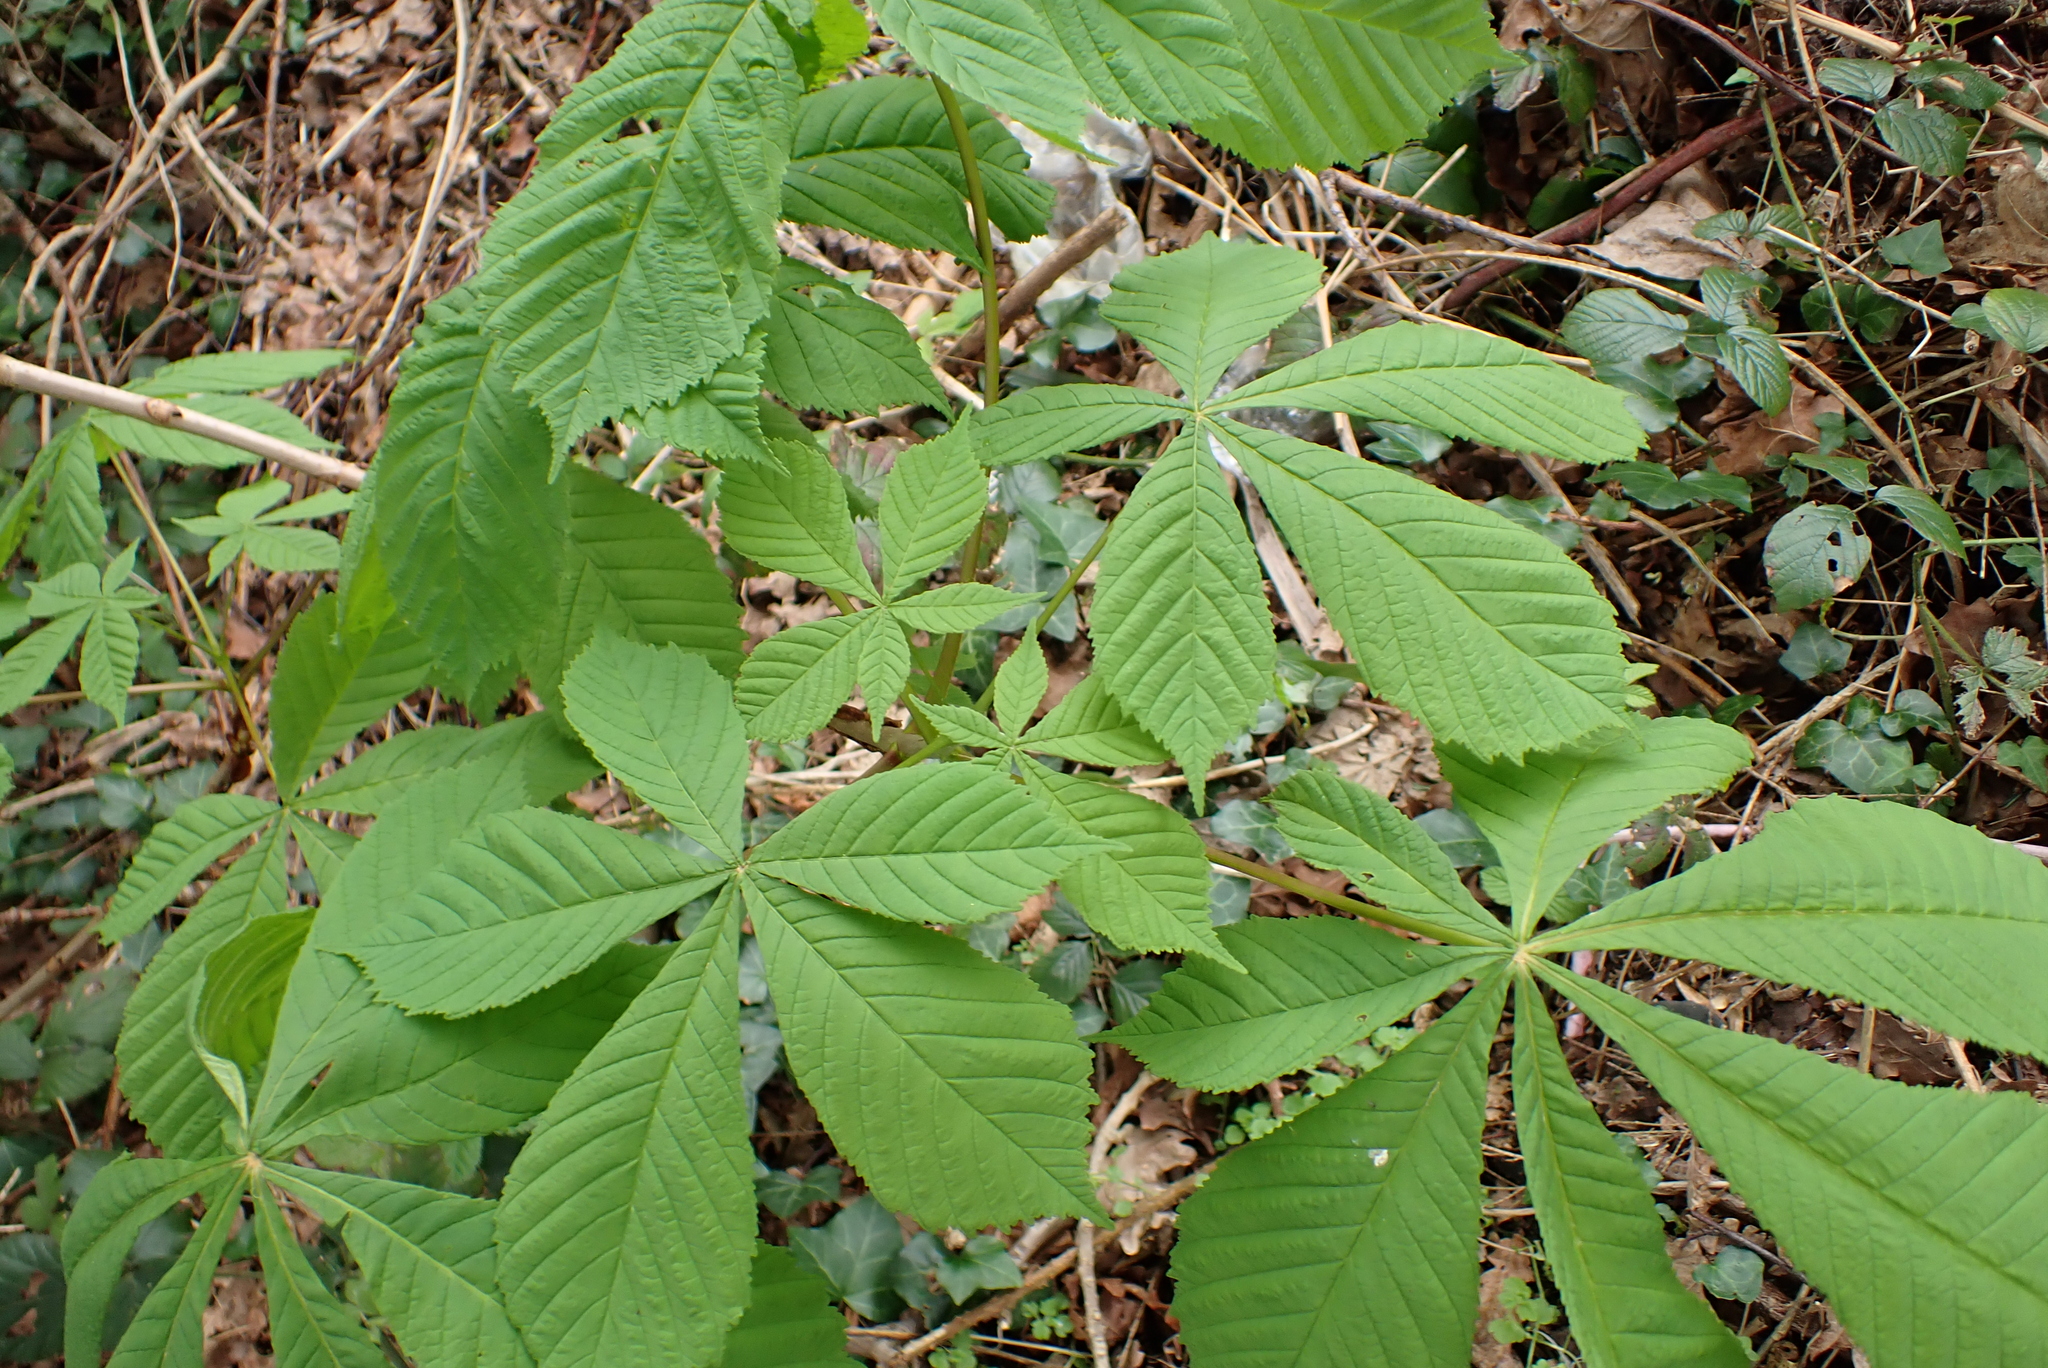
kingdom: Plantae
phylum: Tracheophyta
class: Magnoliopsida
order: Sapindales
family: Sapindaceae
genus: Aesculus
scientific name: Aesculus hippocastanum
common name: Horse-chestnut
